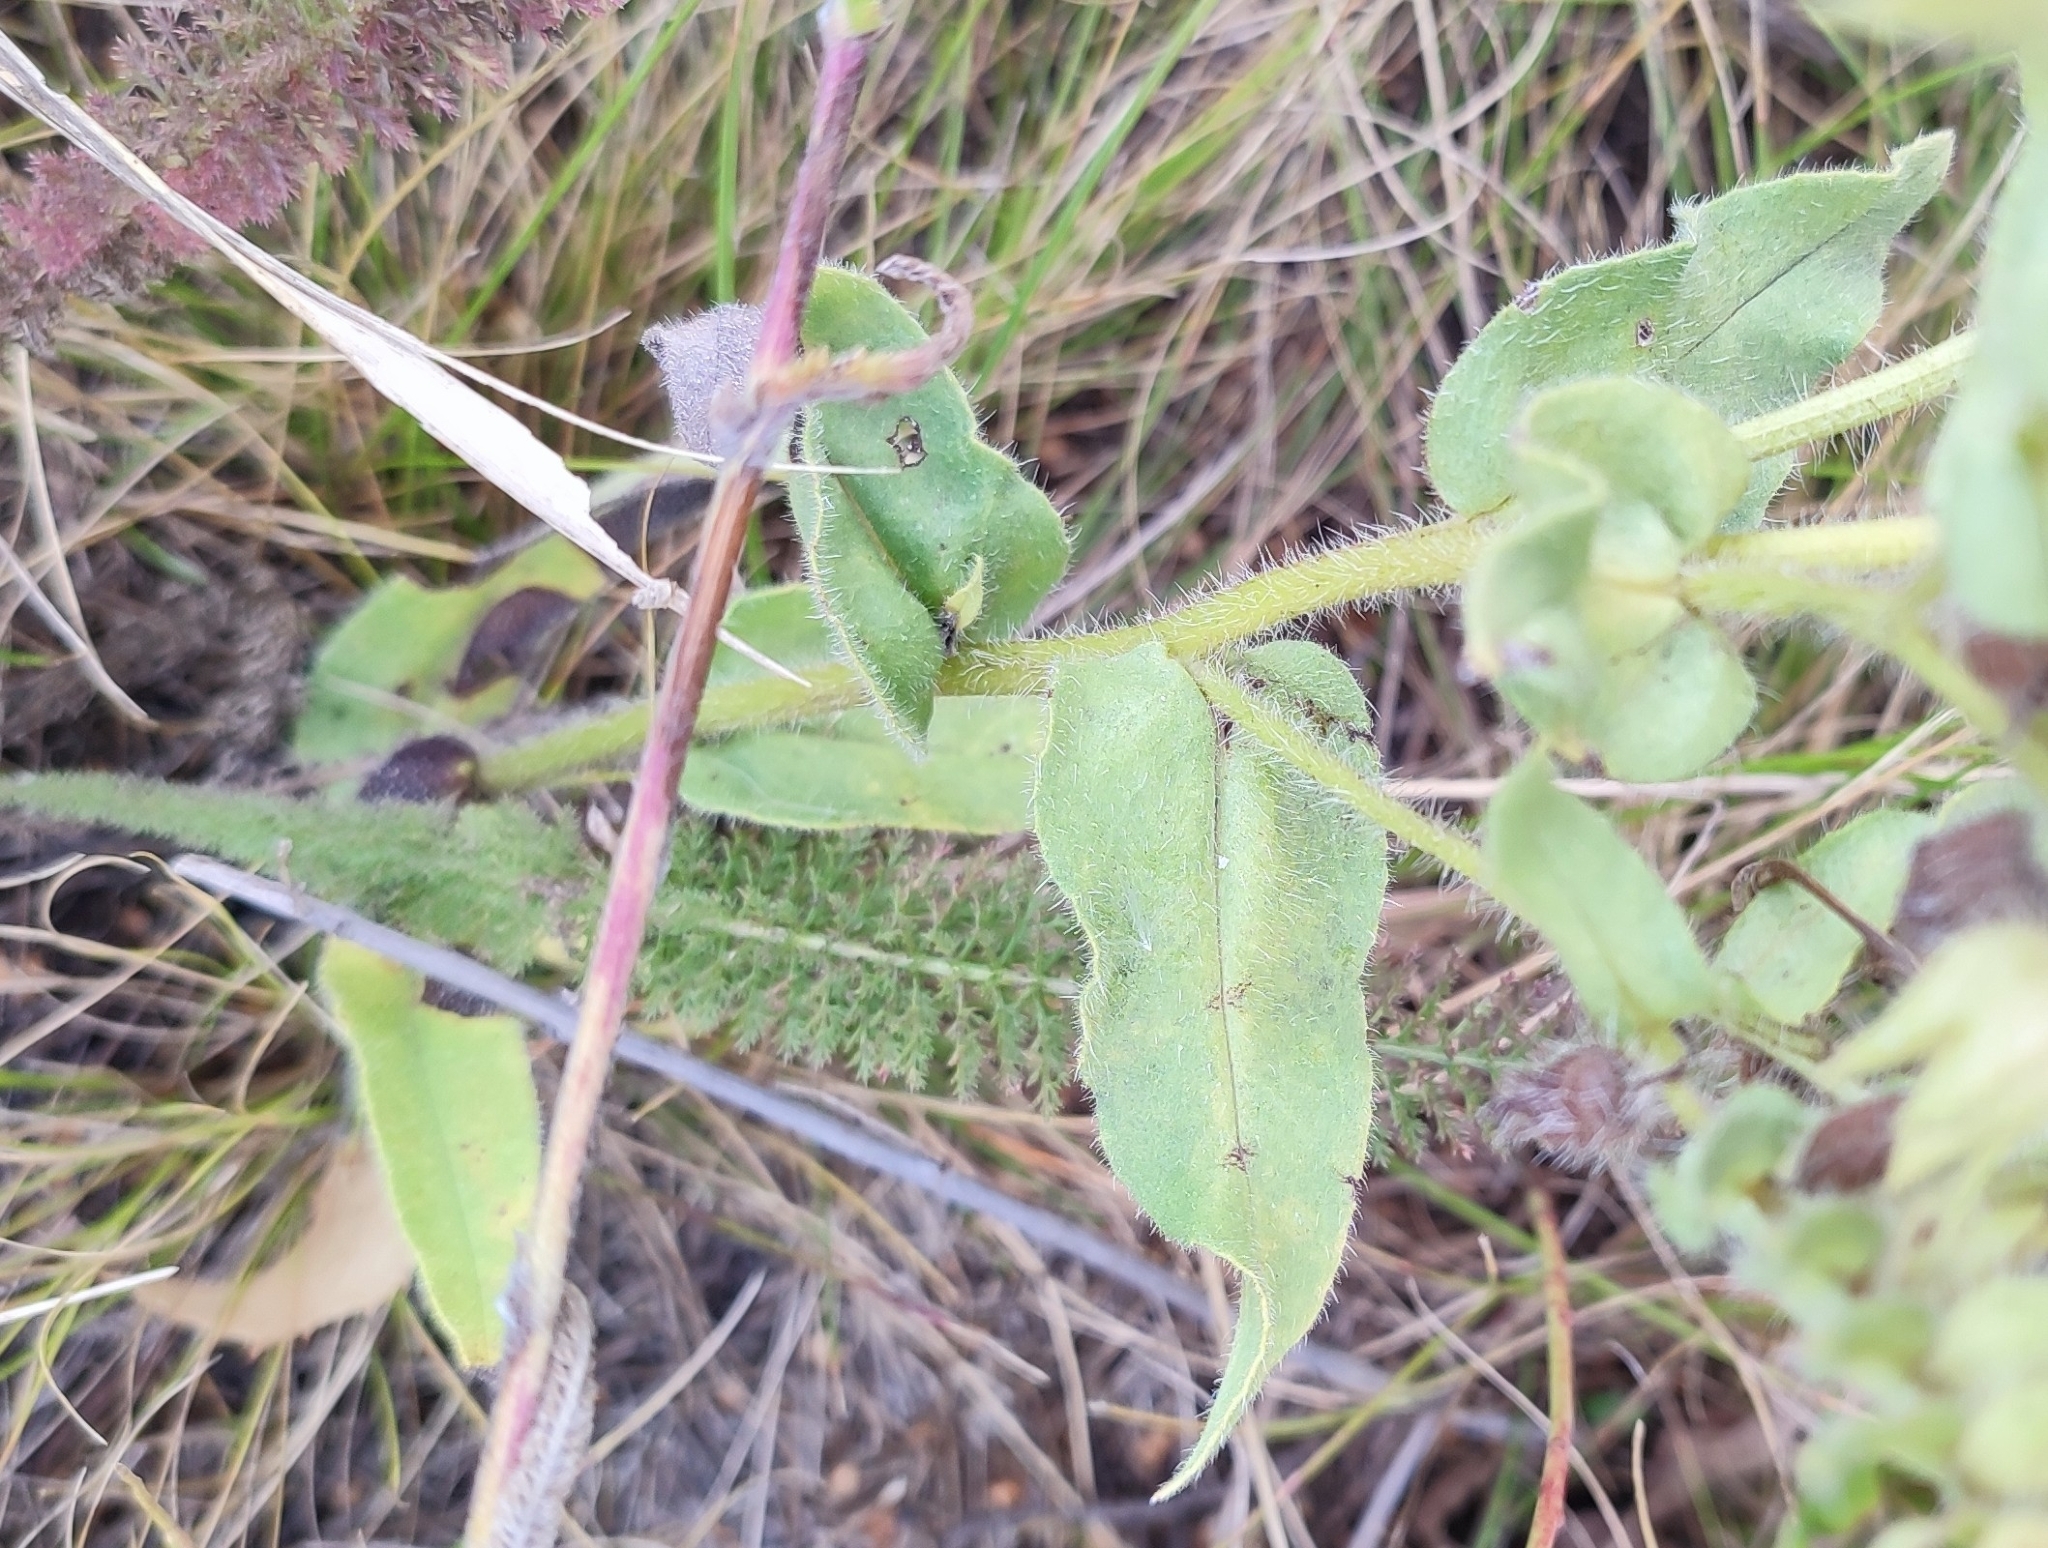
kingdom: Plantae
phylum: Tracheophyta
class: Magnoliopsida
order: Boraginales
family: Boraginaceae
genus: Nonea
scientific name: Nonea pulla
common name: Brown nonea
